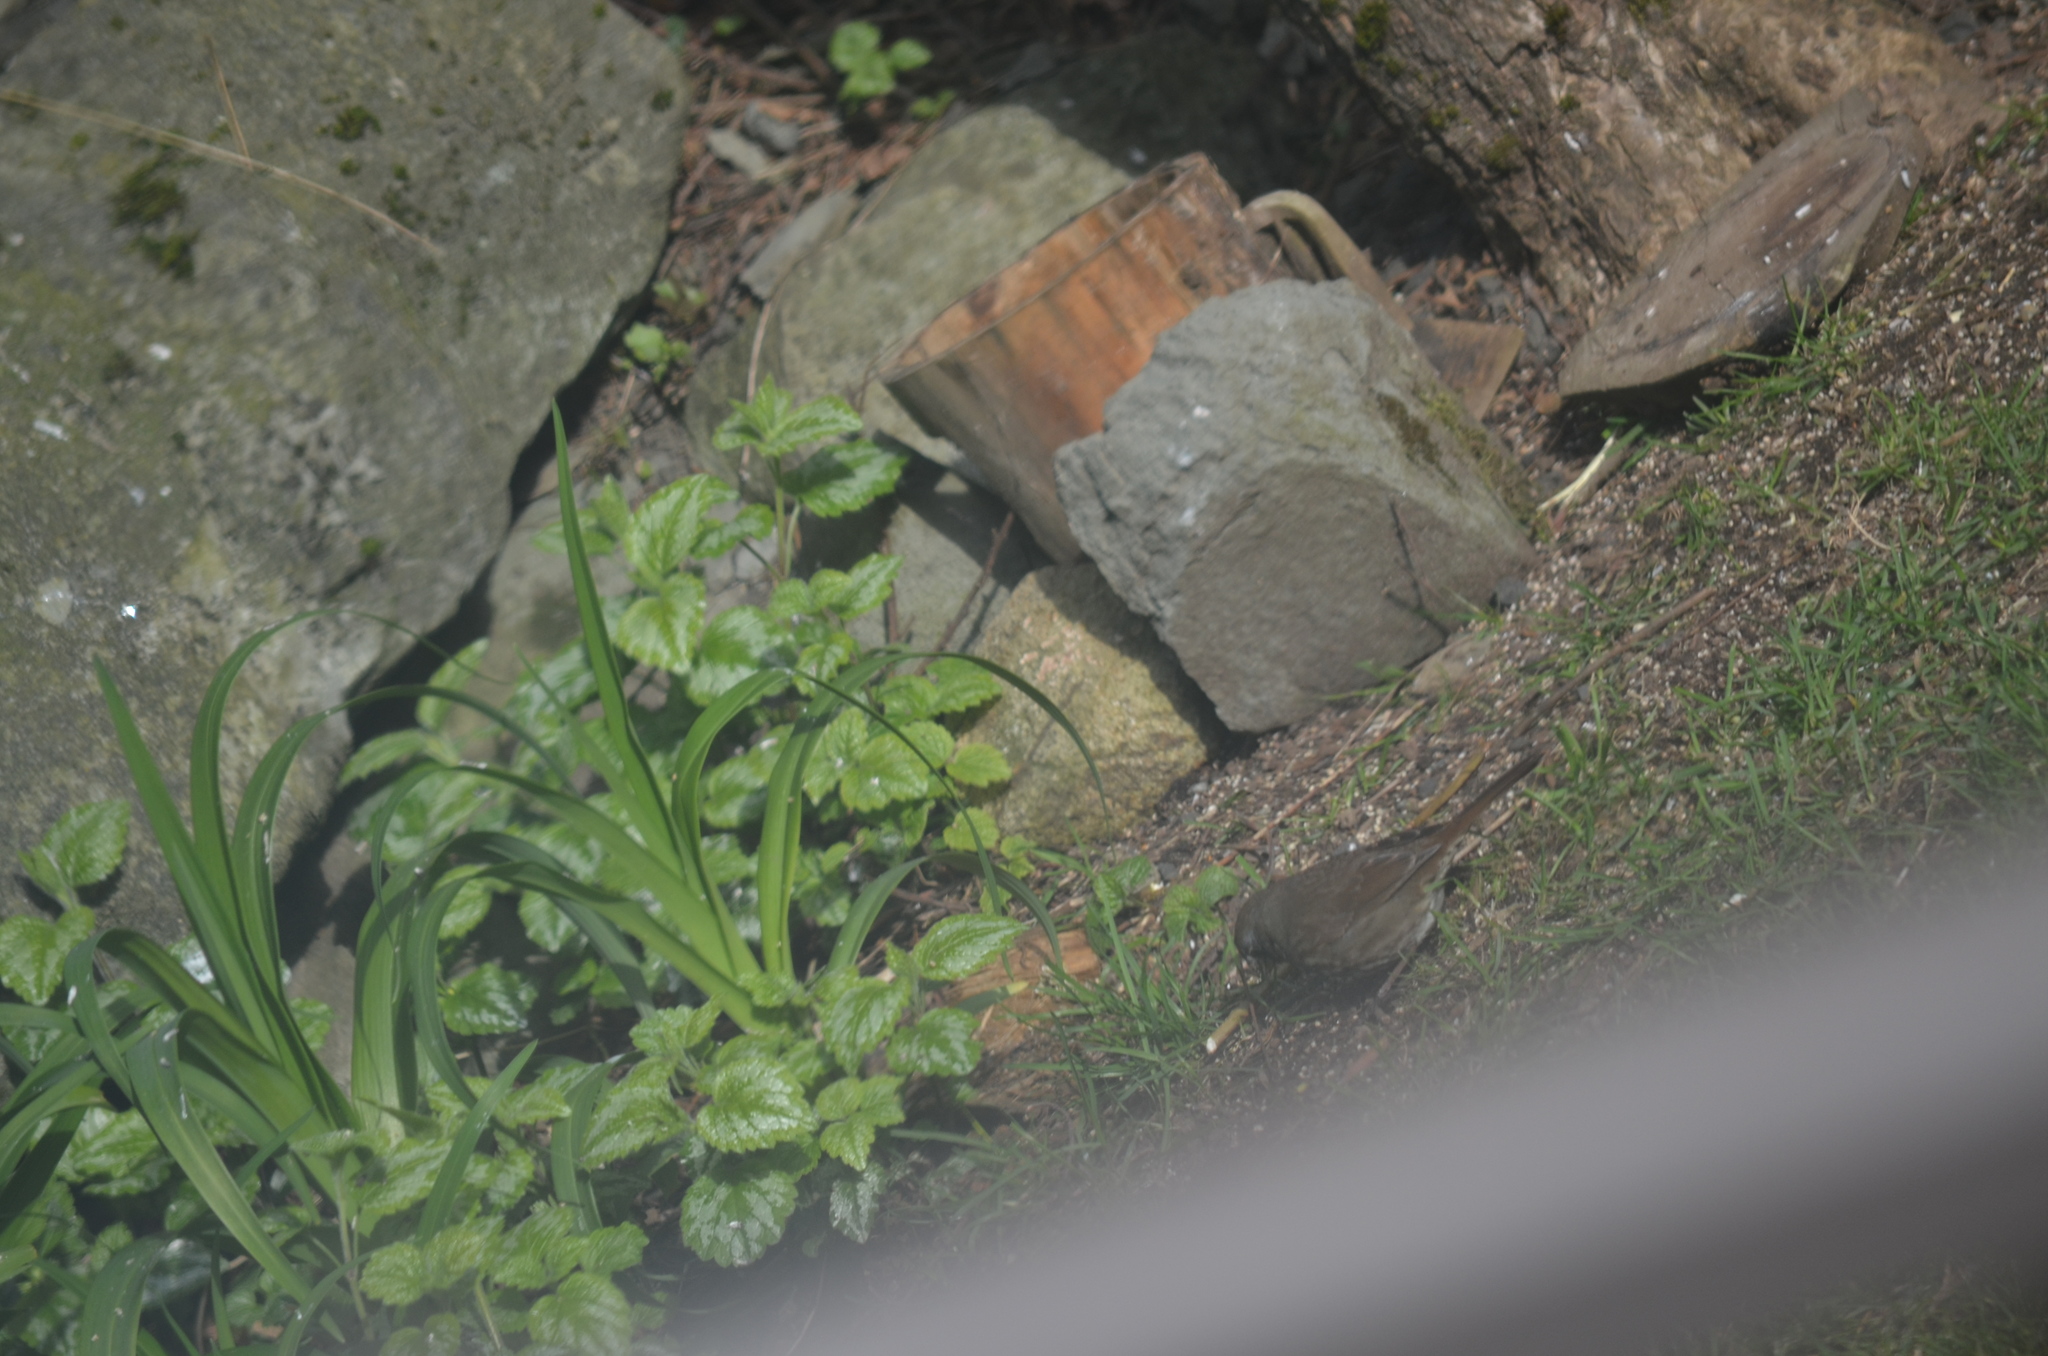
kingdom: Animalia
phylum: Chordata
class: Aves
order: Passeriformes
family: Passerellidae
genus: Passerella
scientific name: Passerella iliaca
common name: Fox sparrow
